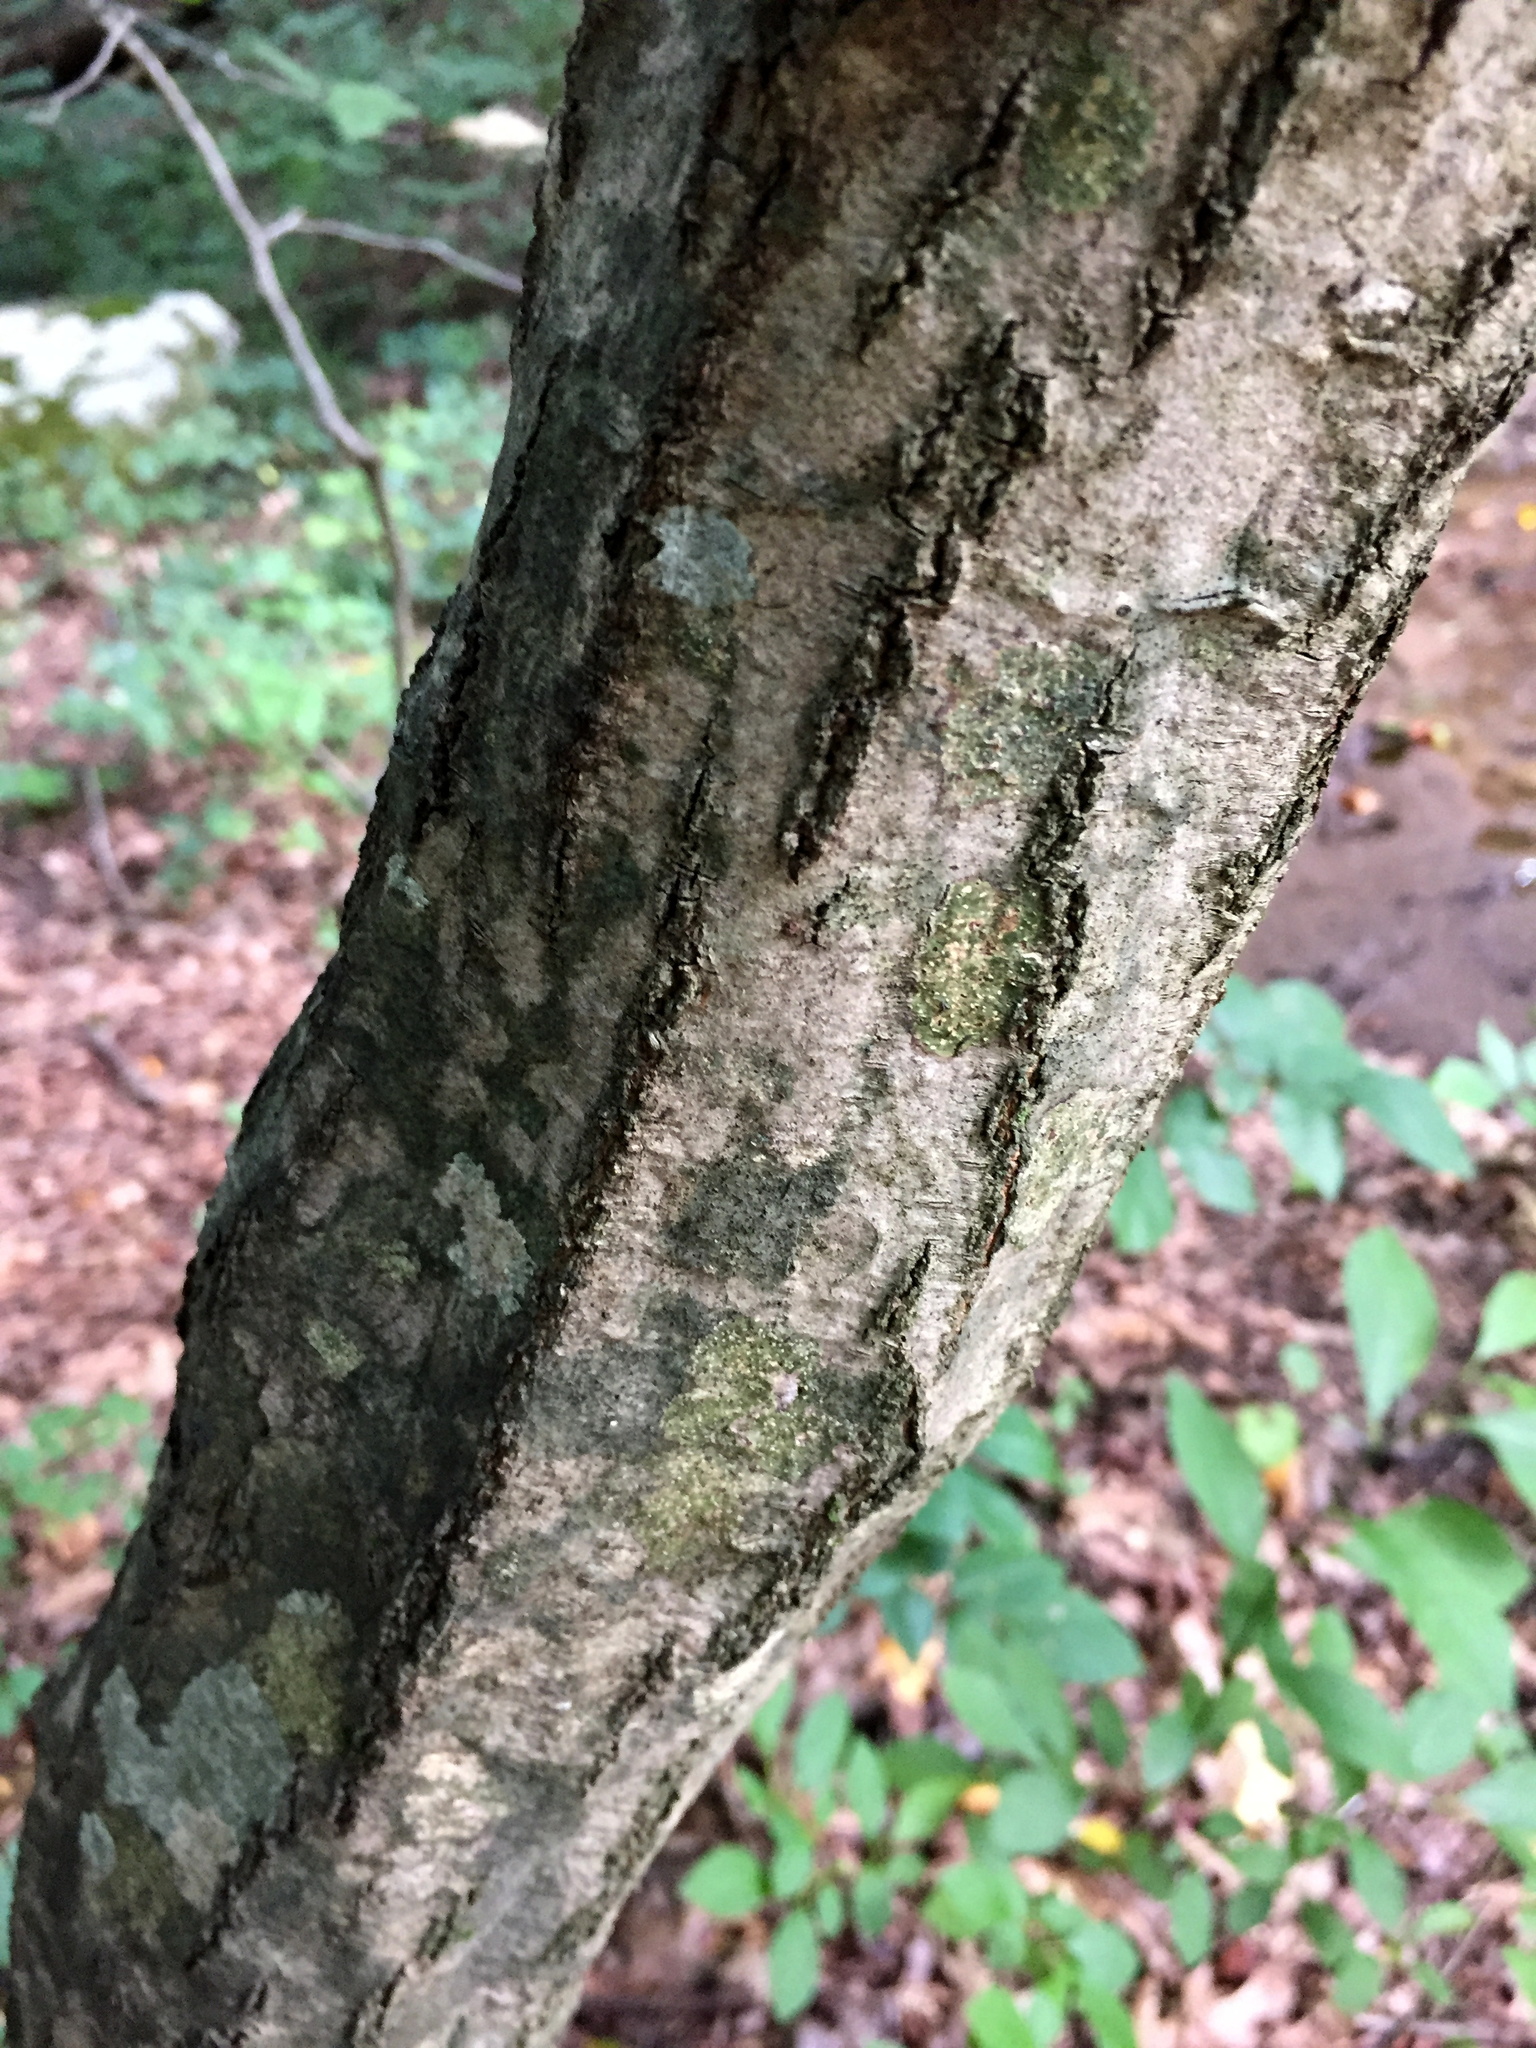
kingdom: Plantae
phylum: Tracheophyta
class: Magnoliopsida
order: Fagales
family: Betulaceae
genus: Carpinus
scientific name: Carpinus caroliniana
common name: American hornbeam
